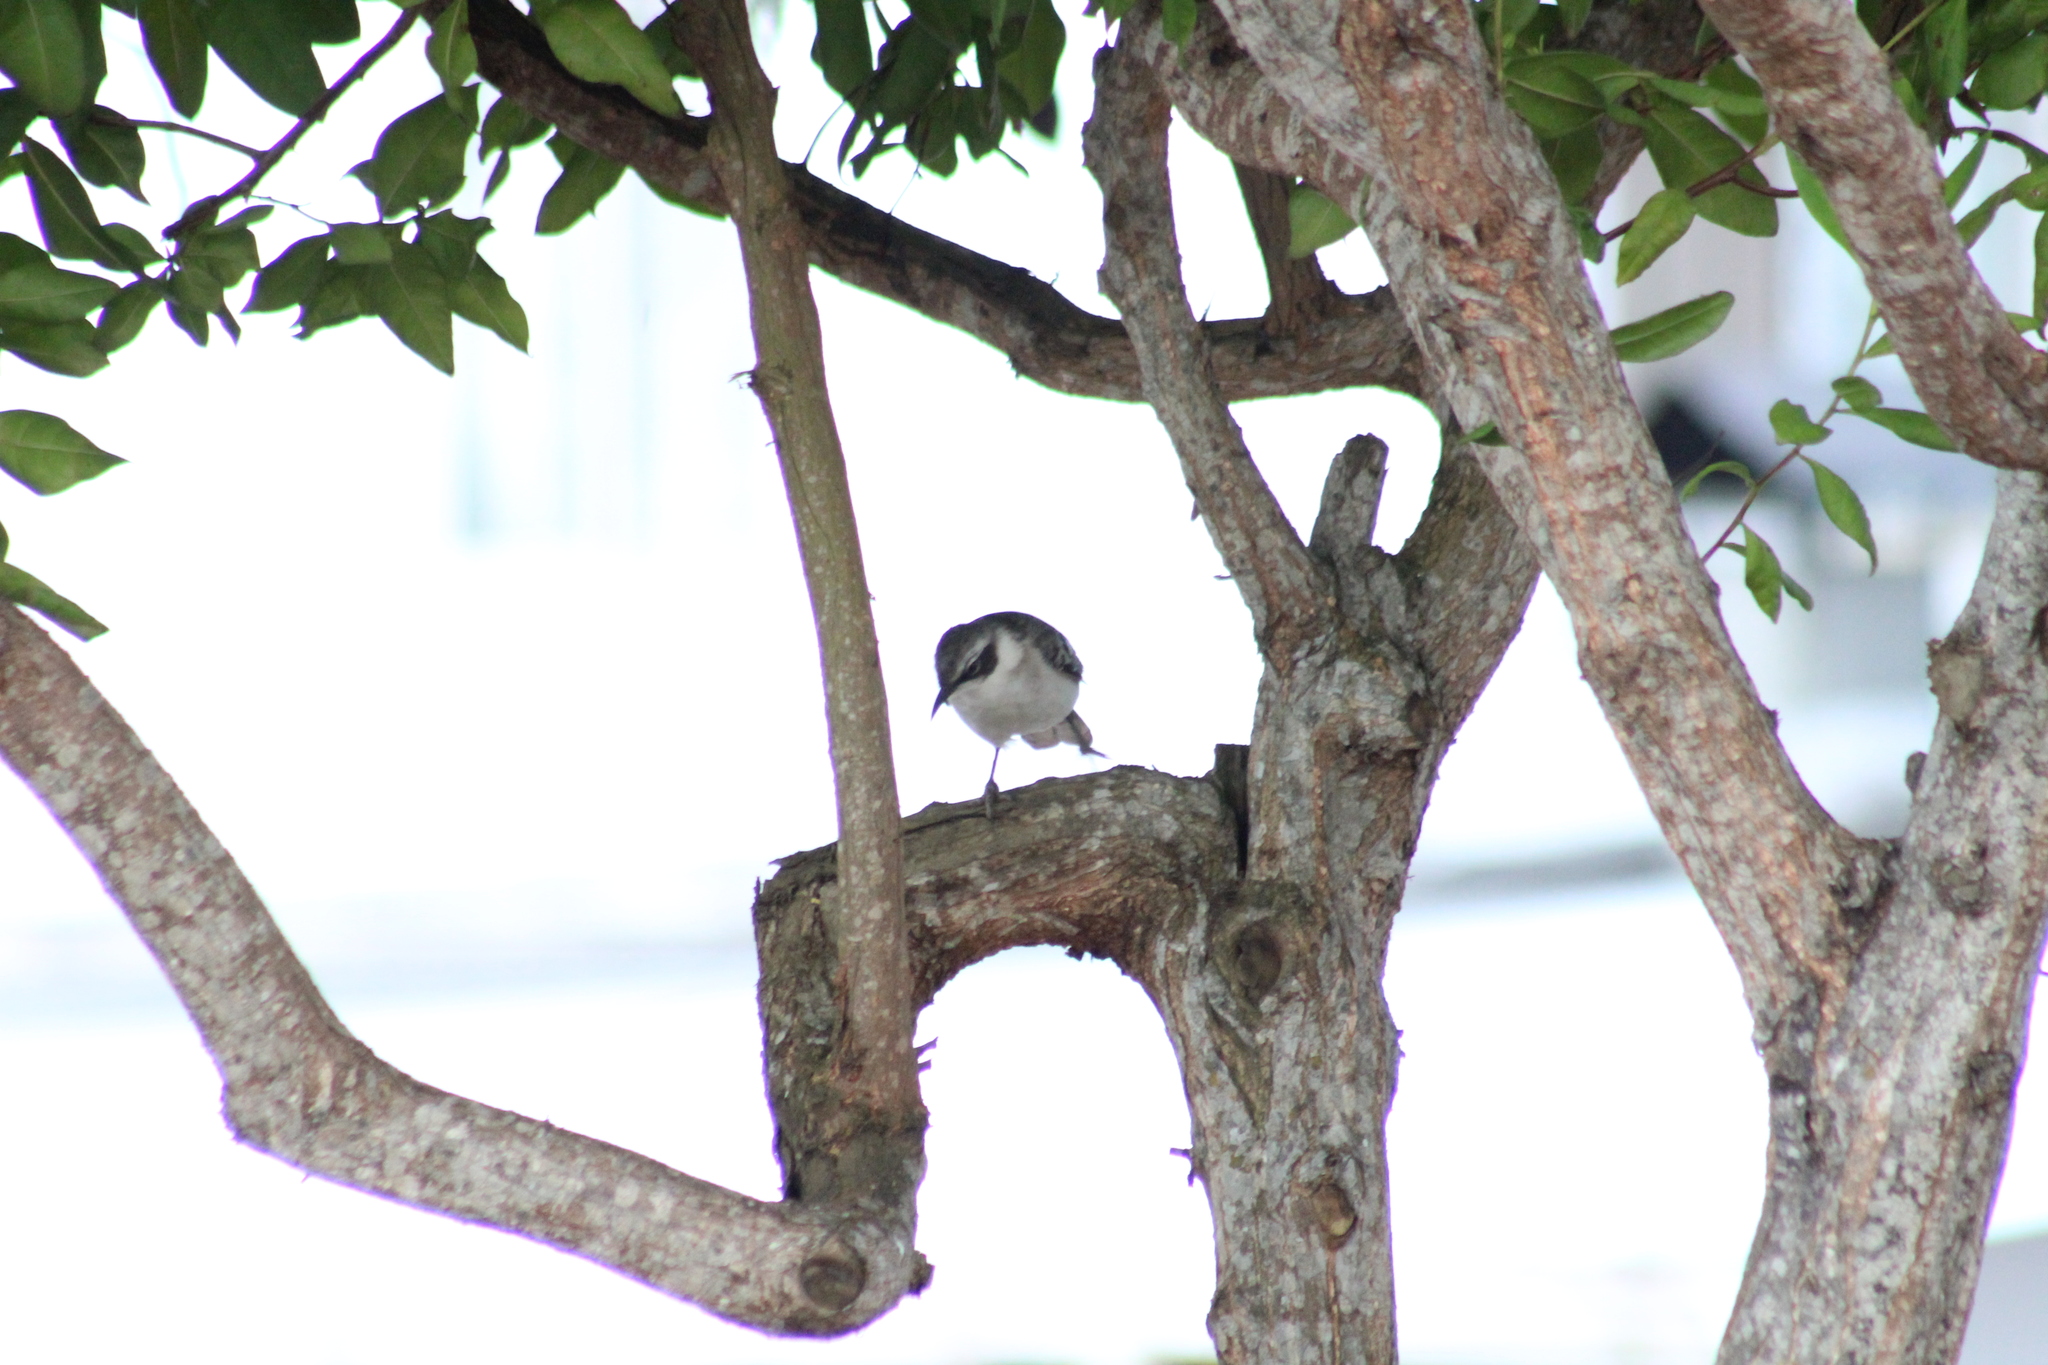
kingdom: Animalia
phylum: Chordata
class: Aves
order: Passeriformes
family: Mimidae
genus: Mimus
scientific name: Mimus parvulus
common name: Galapagos mockingbird
